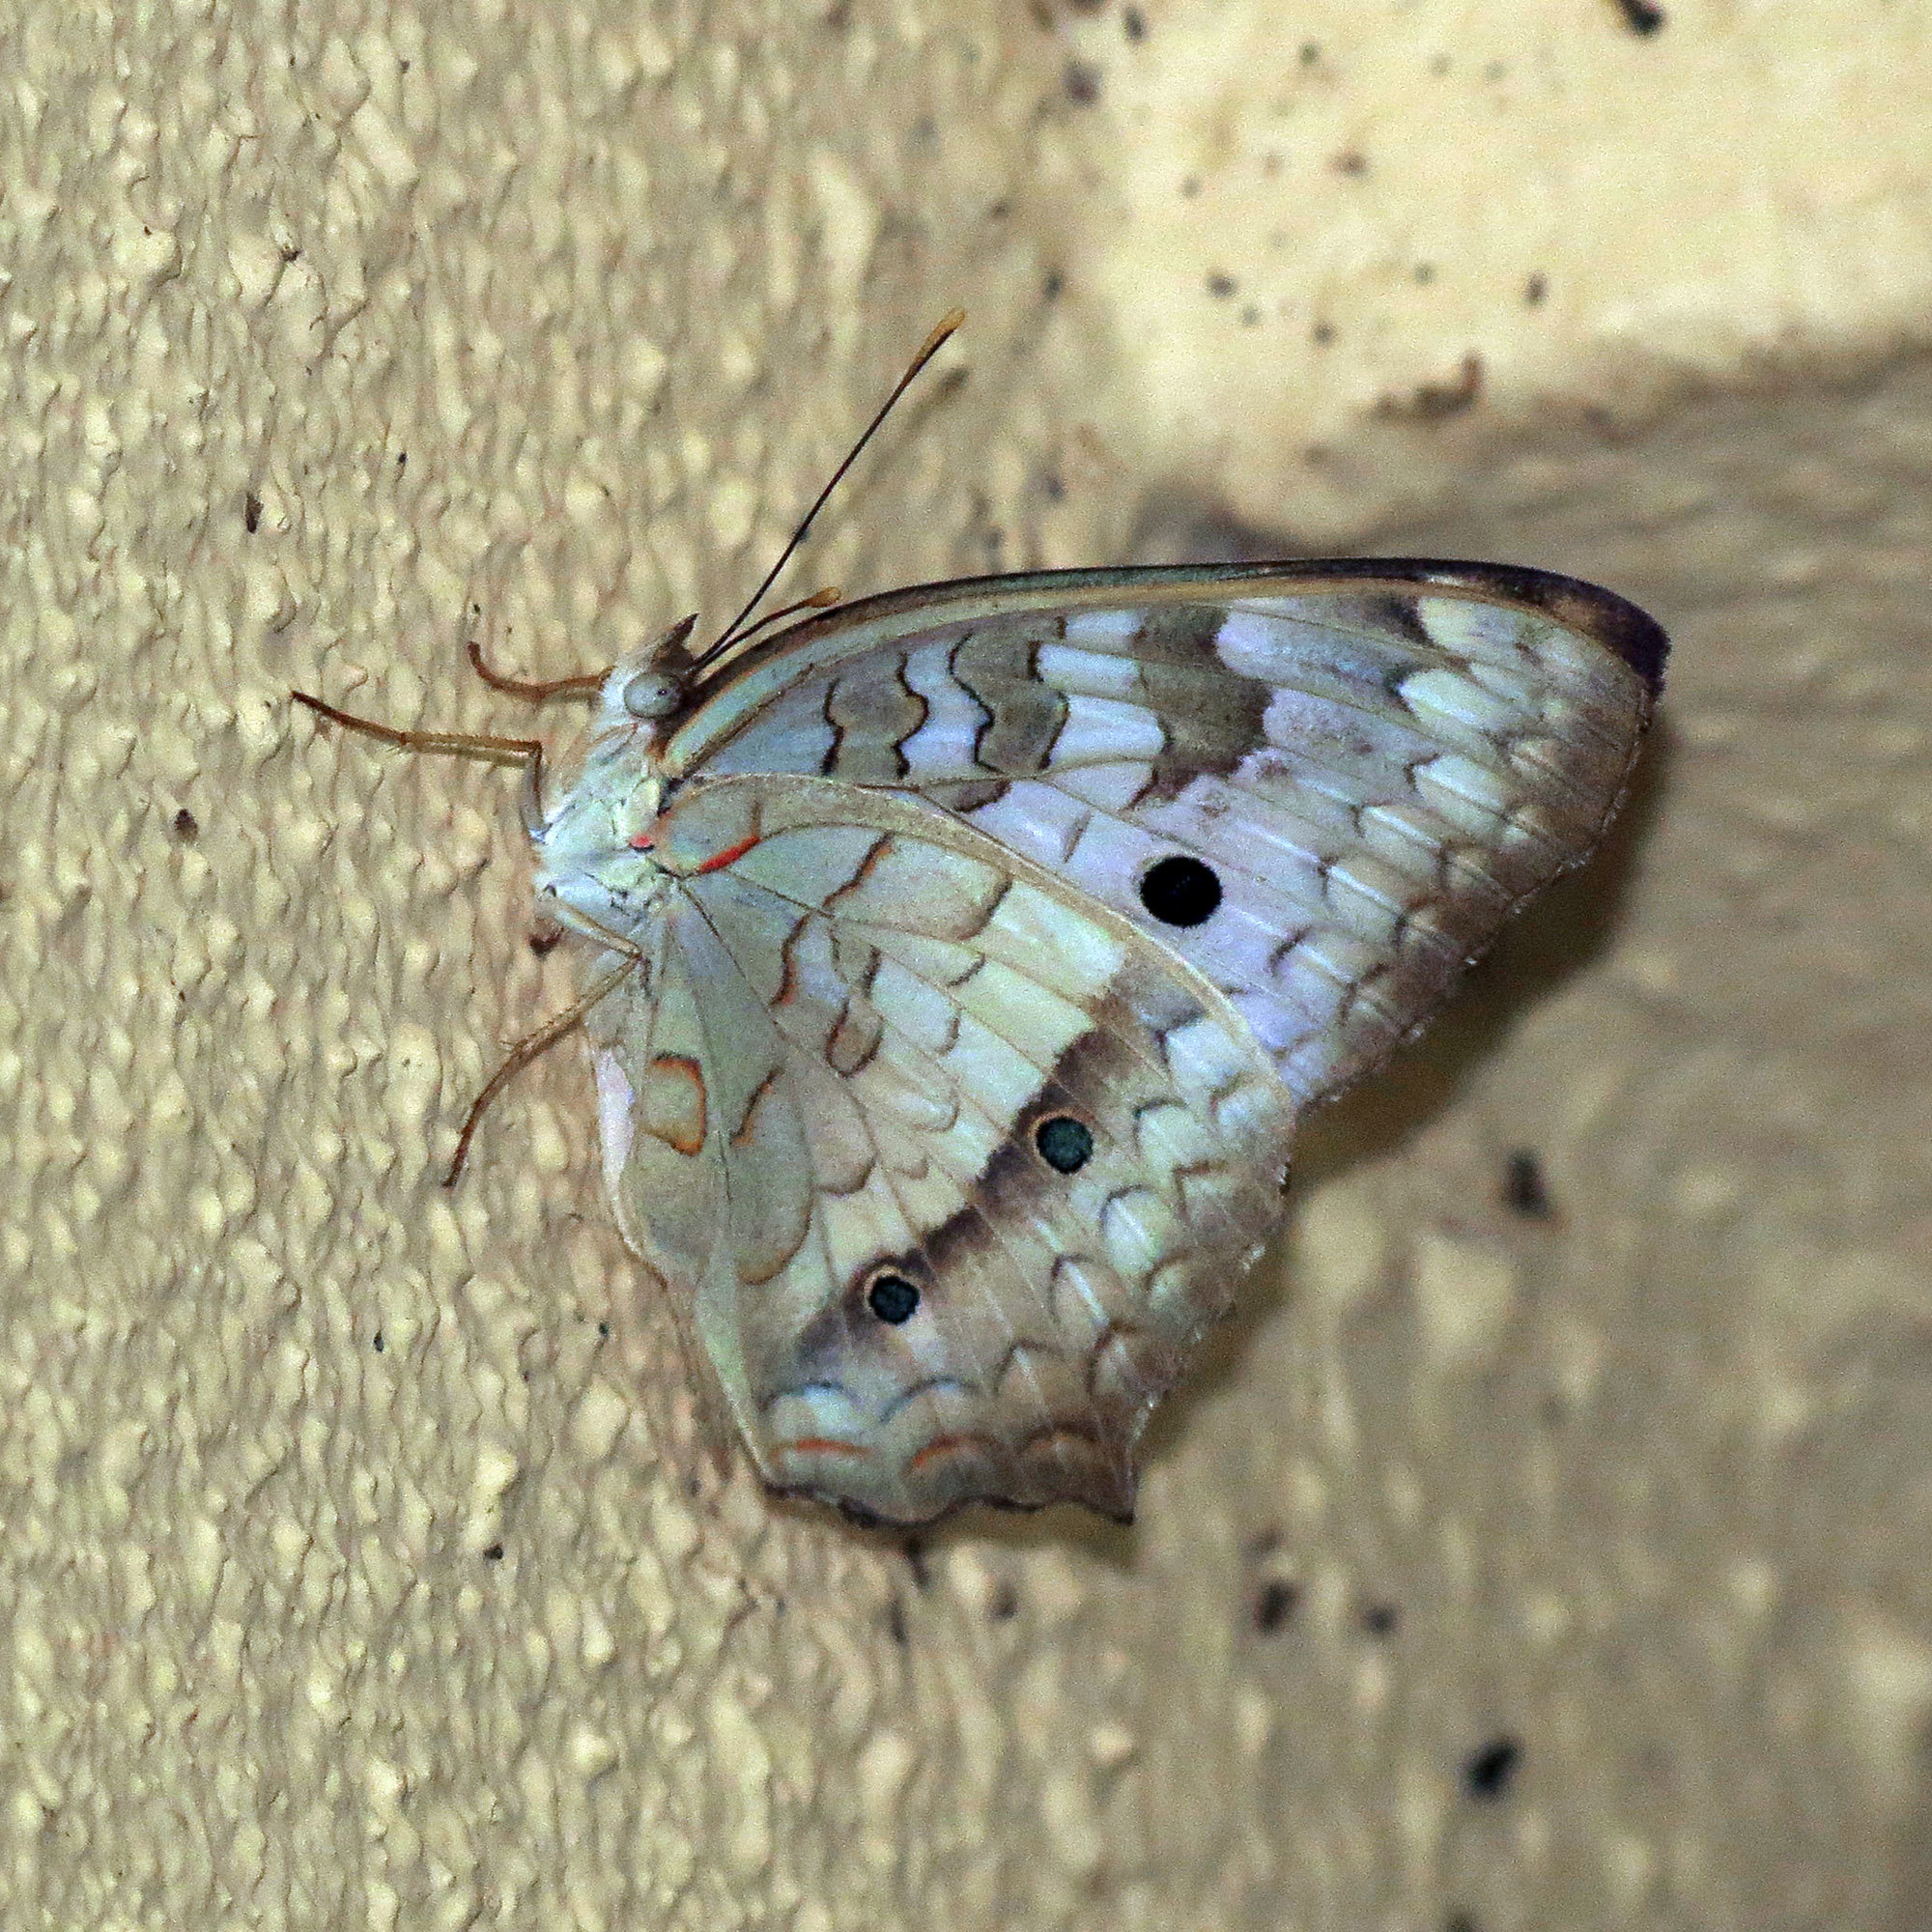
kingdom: Animalia
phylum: Arthropoda
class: Insecta
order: Lepidoptera
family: Nymphalidae
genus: Anartia
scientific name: Anartia jatrophae
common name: White peacock
